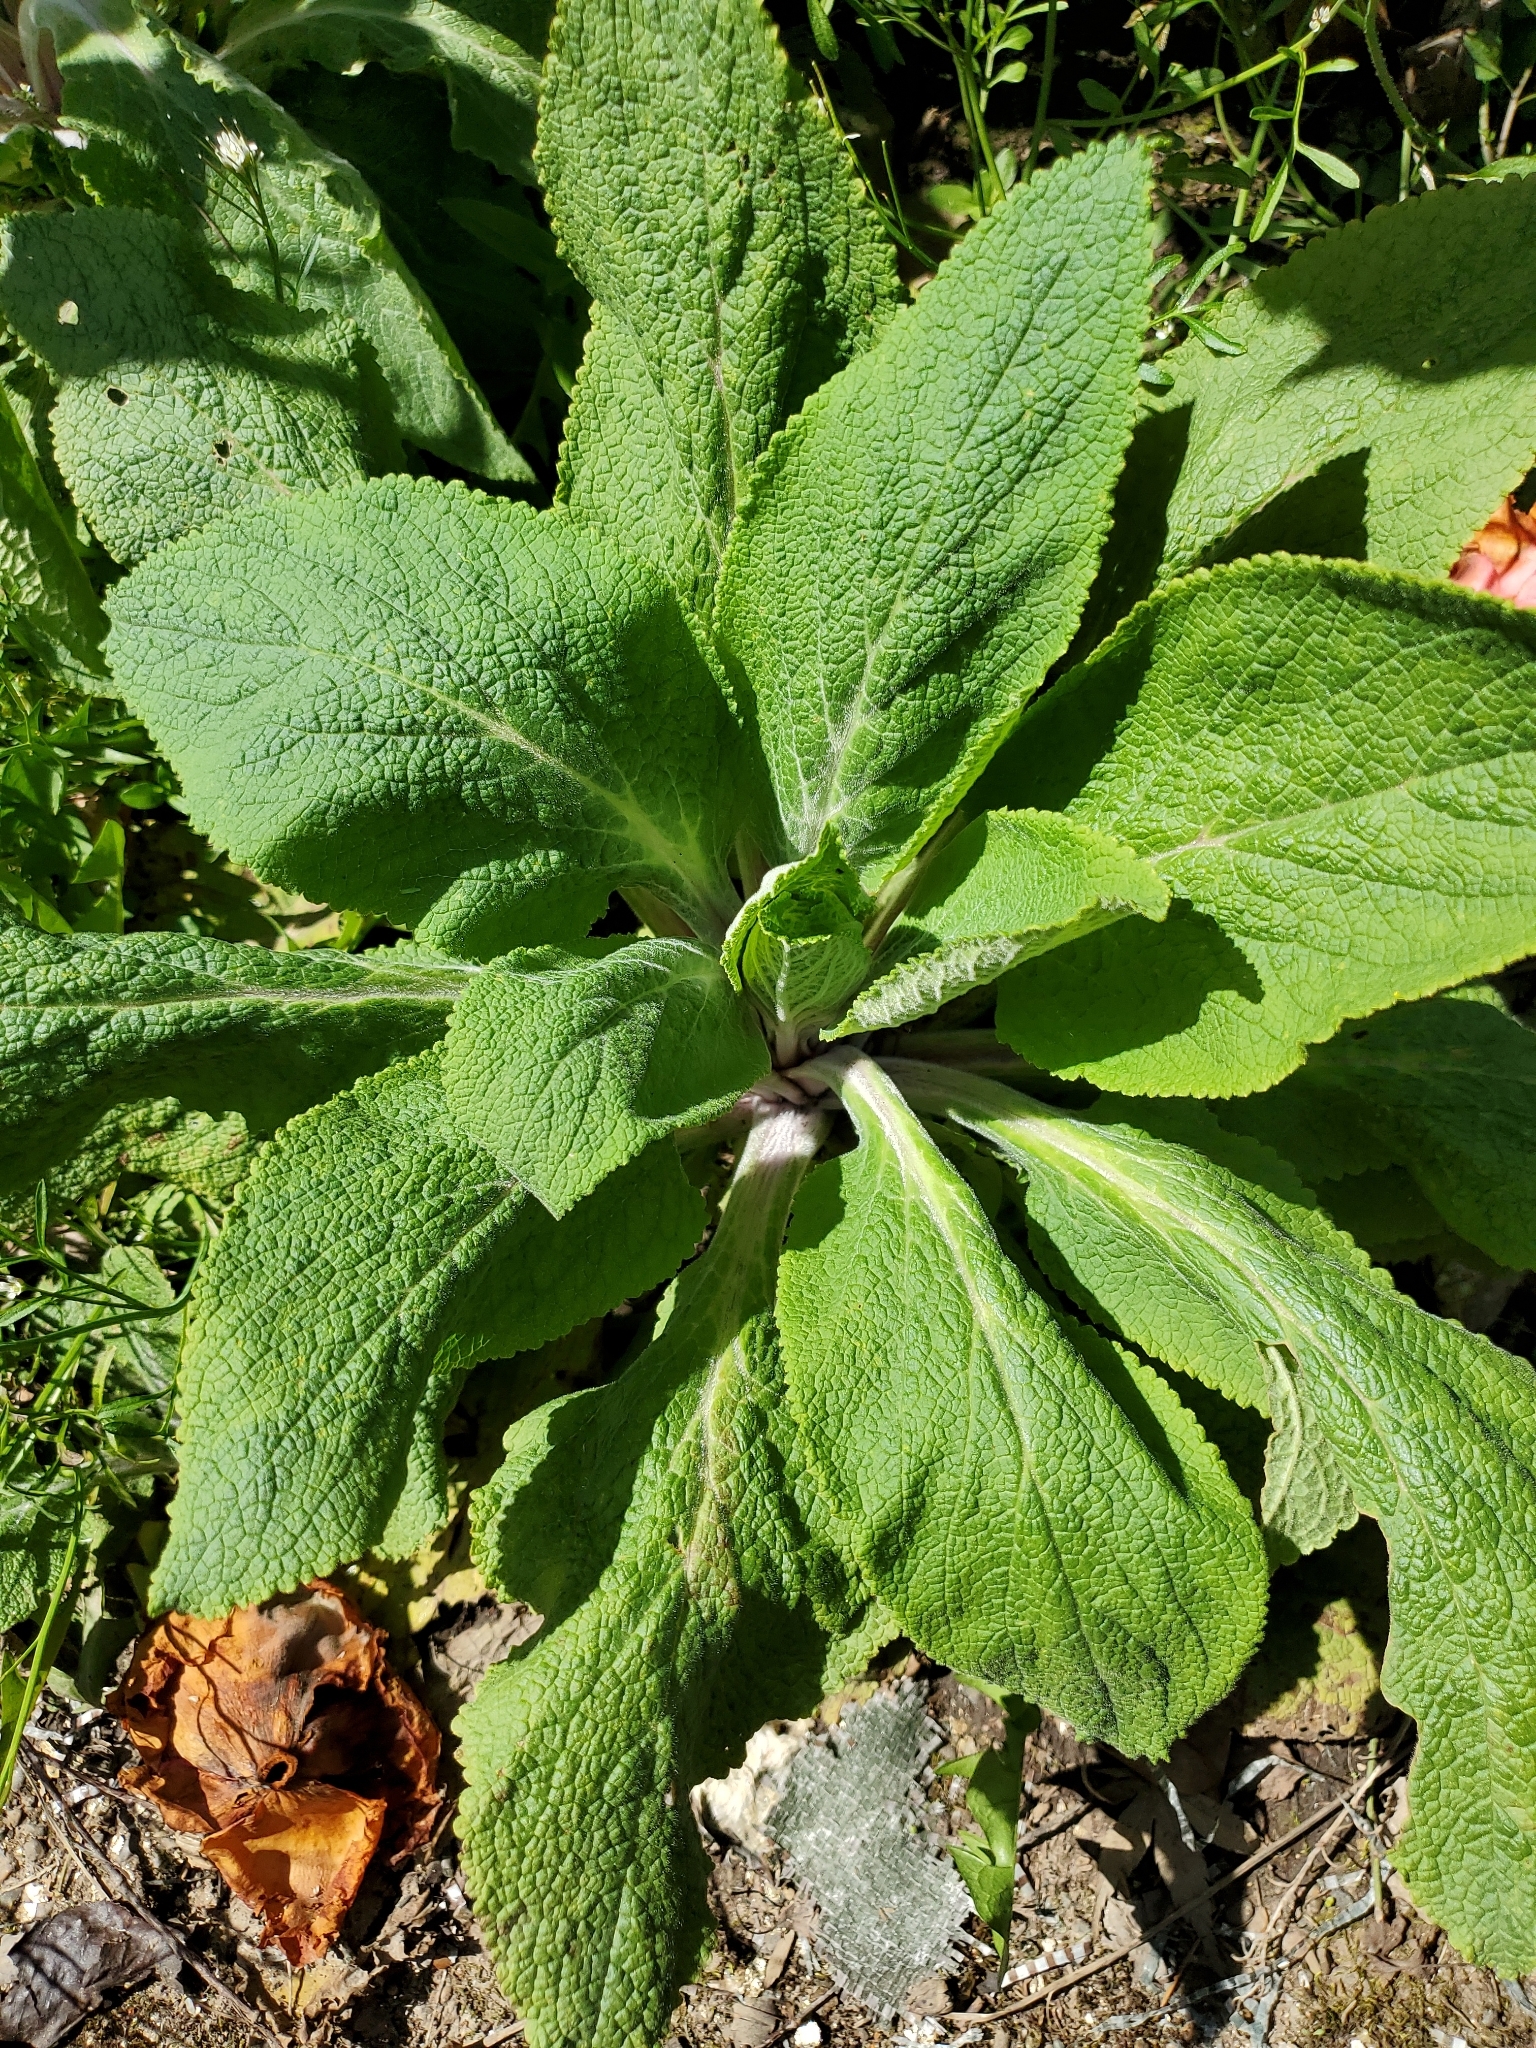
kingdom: Plantae
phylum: Tracheophyta
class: Magnoliopsida
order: Lamiales
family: Plantaginaceae
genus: Digitalis
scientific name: Digitalis purpurea
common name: Foxglove
